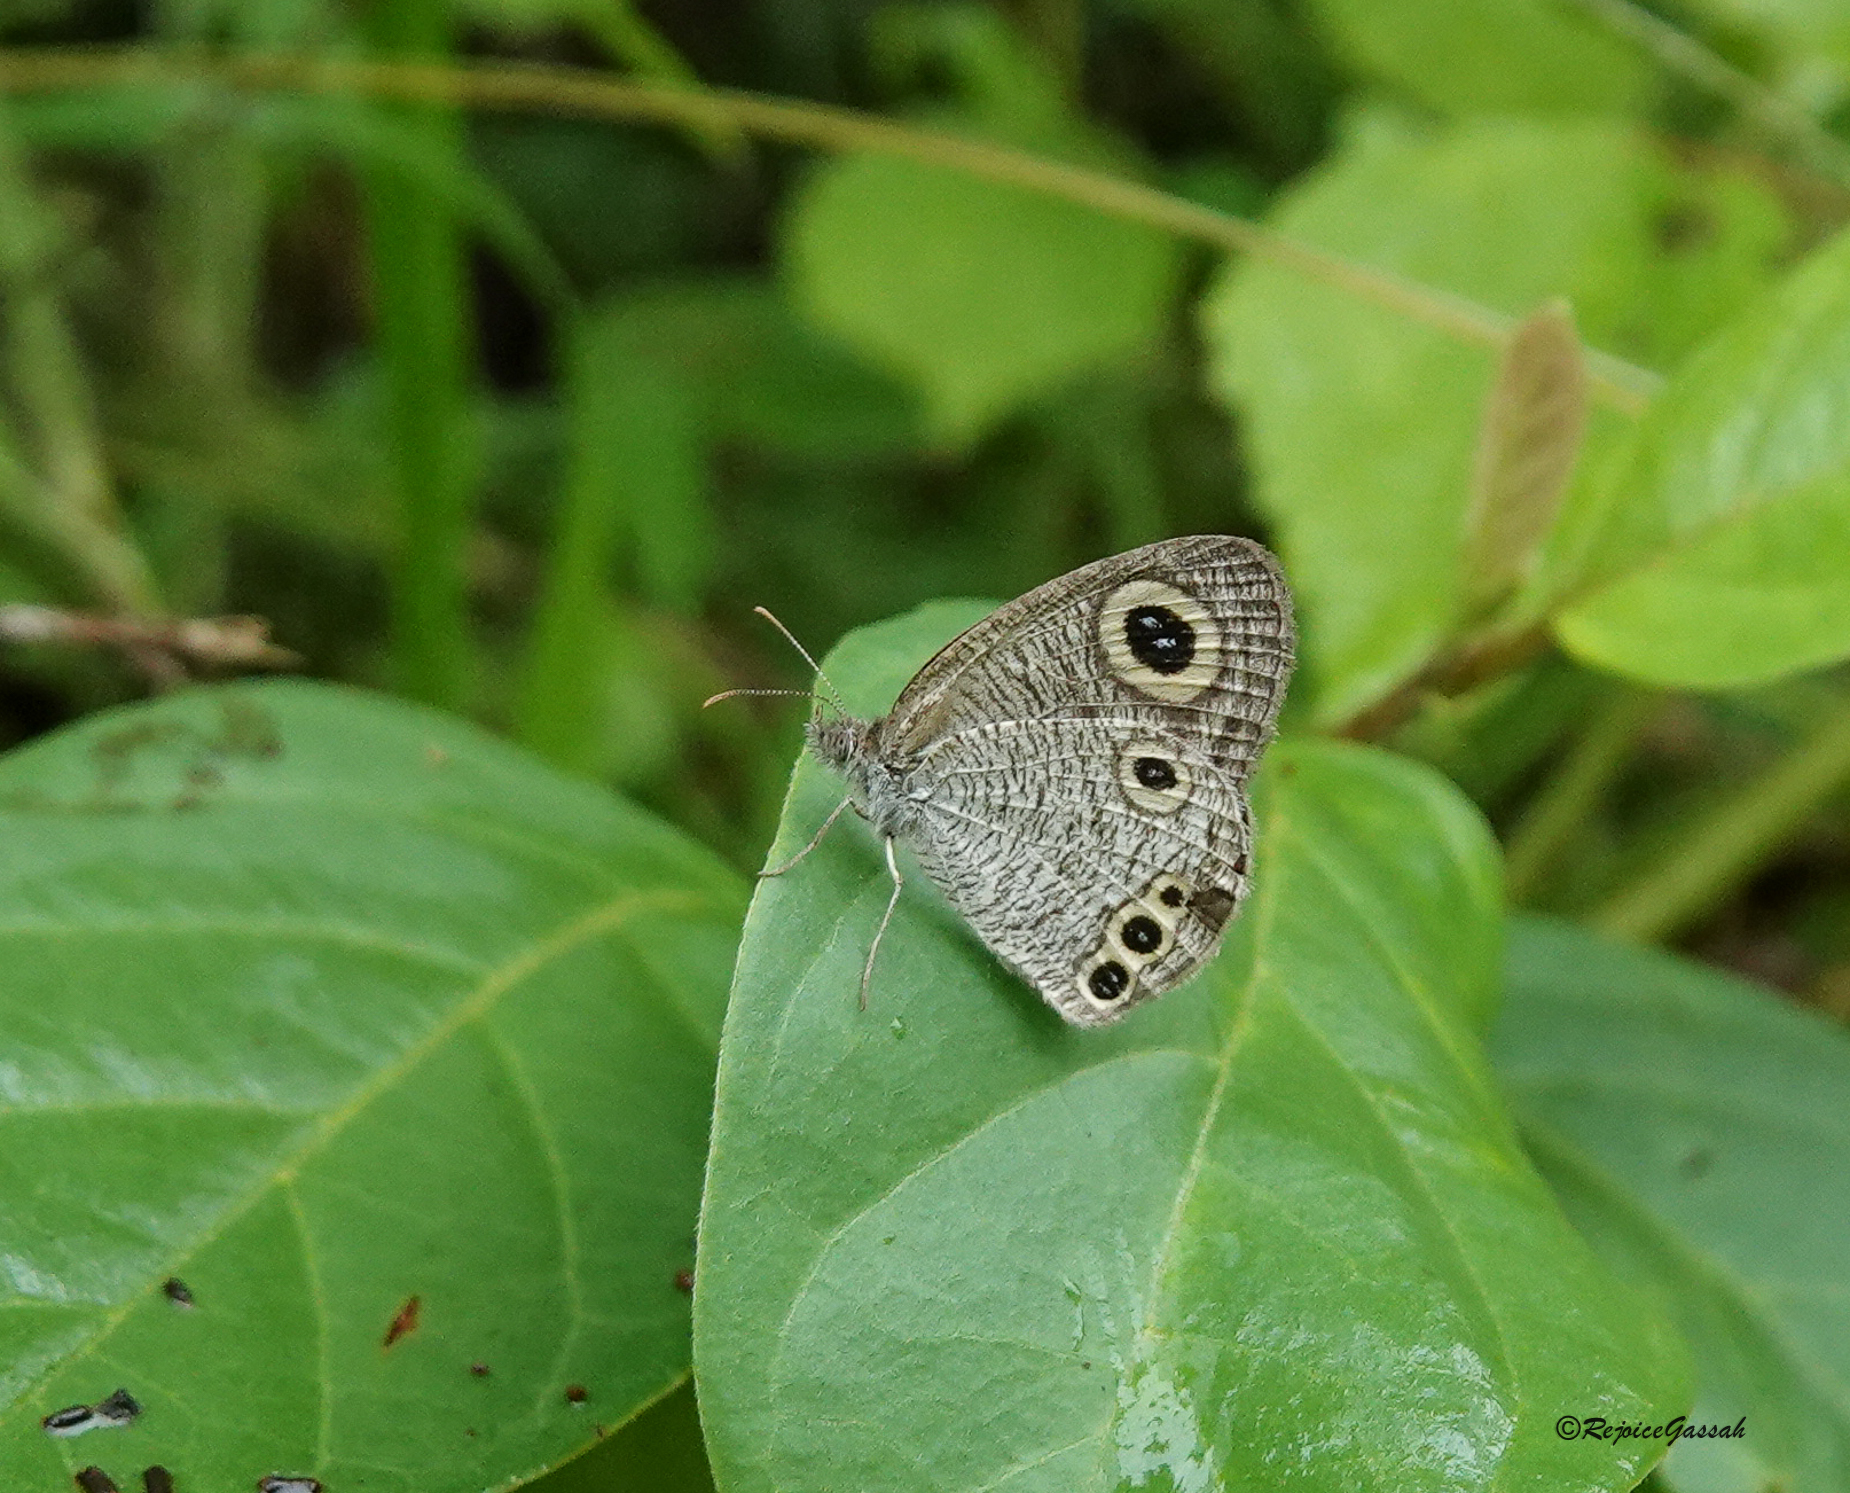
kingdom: Animalia
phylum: Arthropoda
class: Insecta
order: Lepidoptera
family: Nymphalidae
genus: Ypthima
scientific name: Ypthima huebneri
